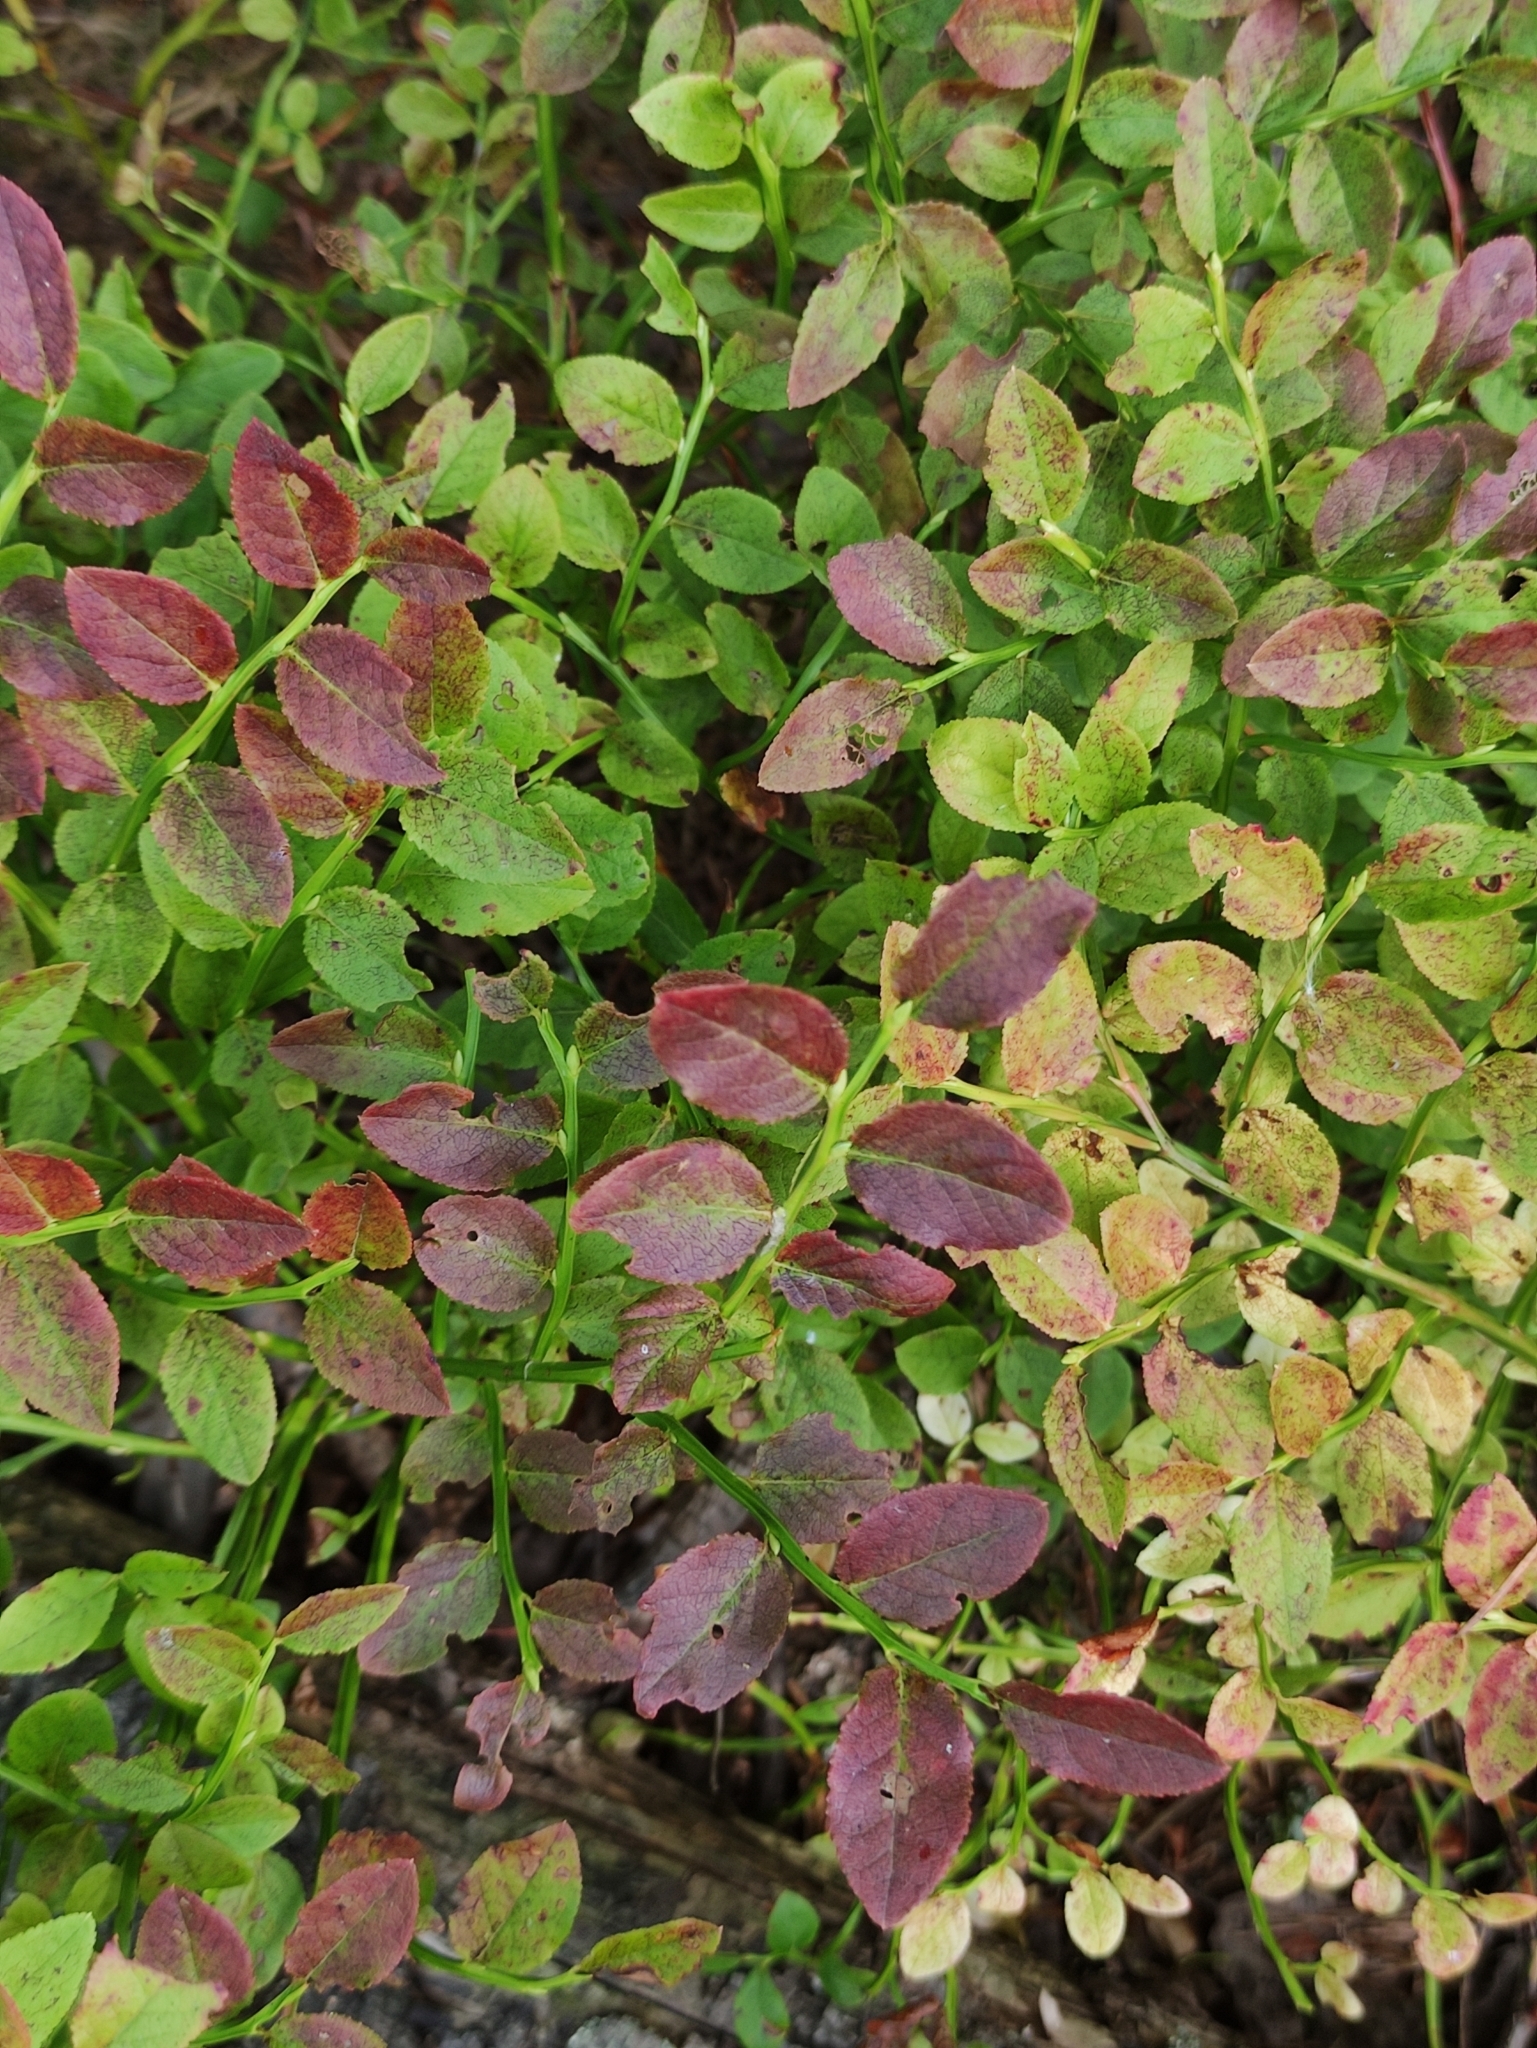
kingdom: Plantae
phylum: Tracheophyta
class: Magnoliopsida
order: Ericales
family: Ericaceae
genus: Vaccinium
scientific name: Vaccinium myrtillus
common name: Bilberry
